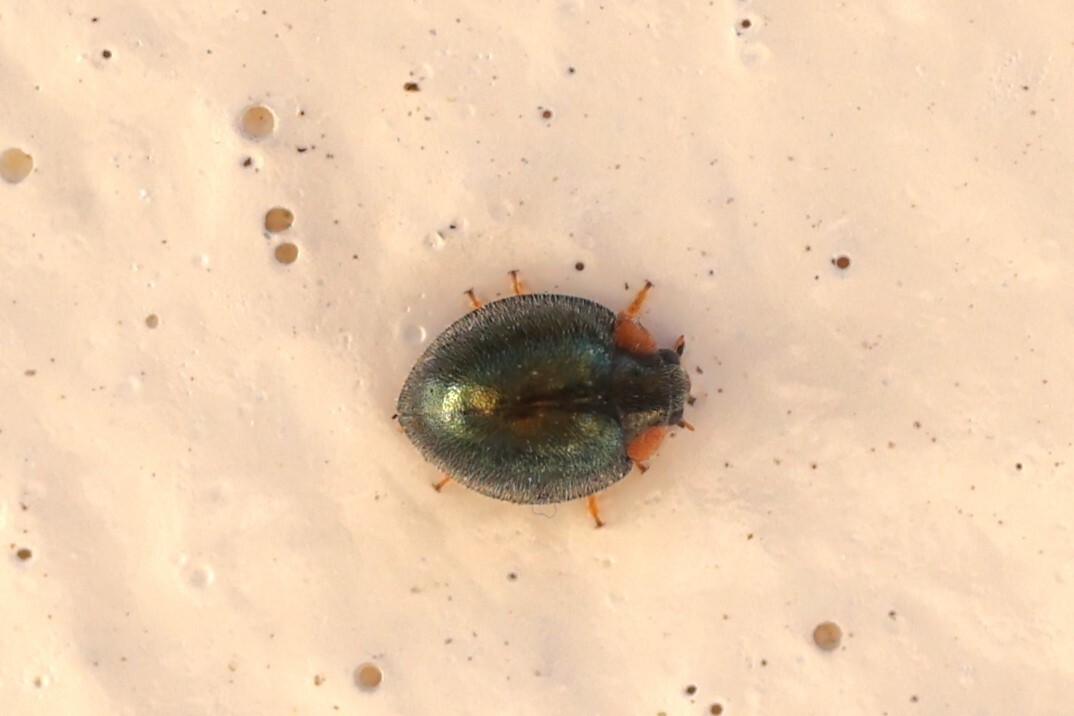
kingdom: Animalia
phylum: Arthropoda
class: Insecta
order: Coleoptera
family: Coccinellidae
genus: Exochomus
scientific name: Exochomus metallicus
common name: Ladybird beetle
